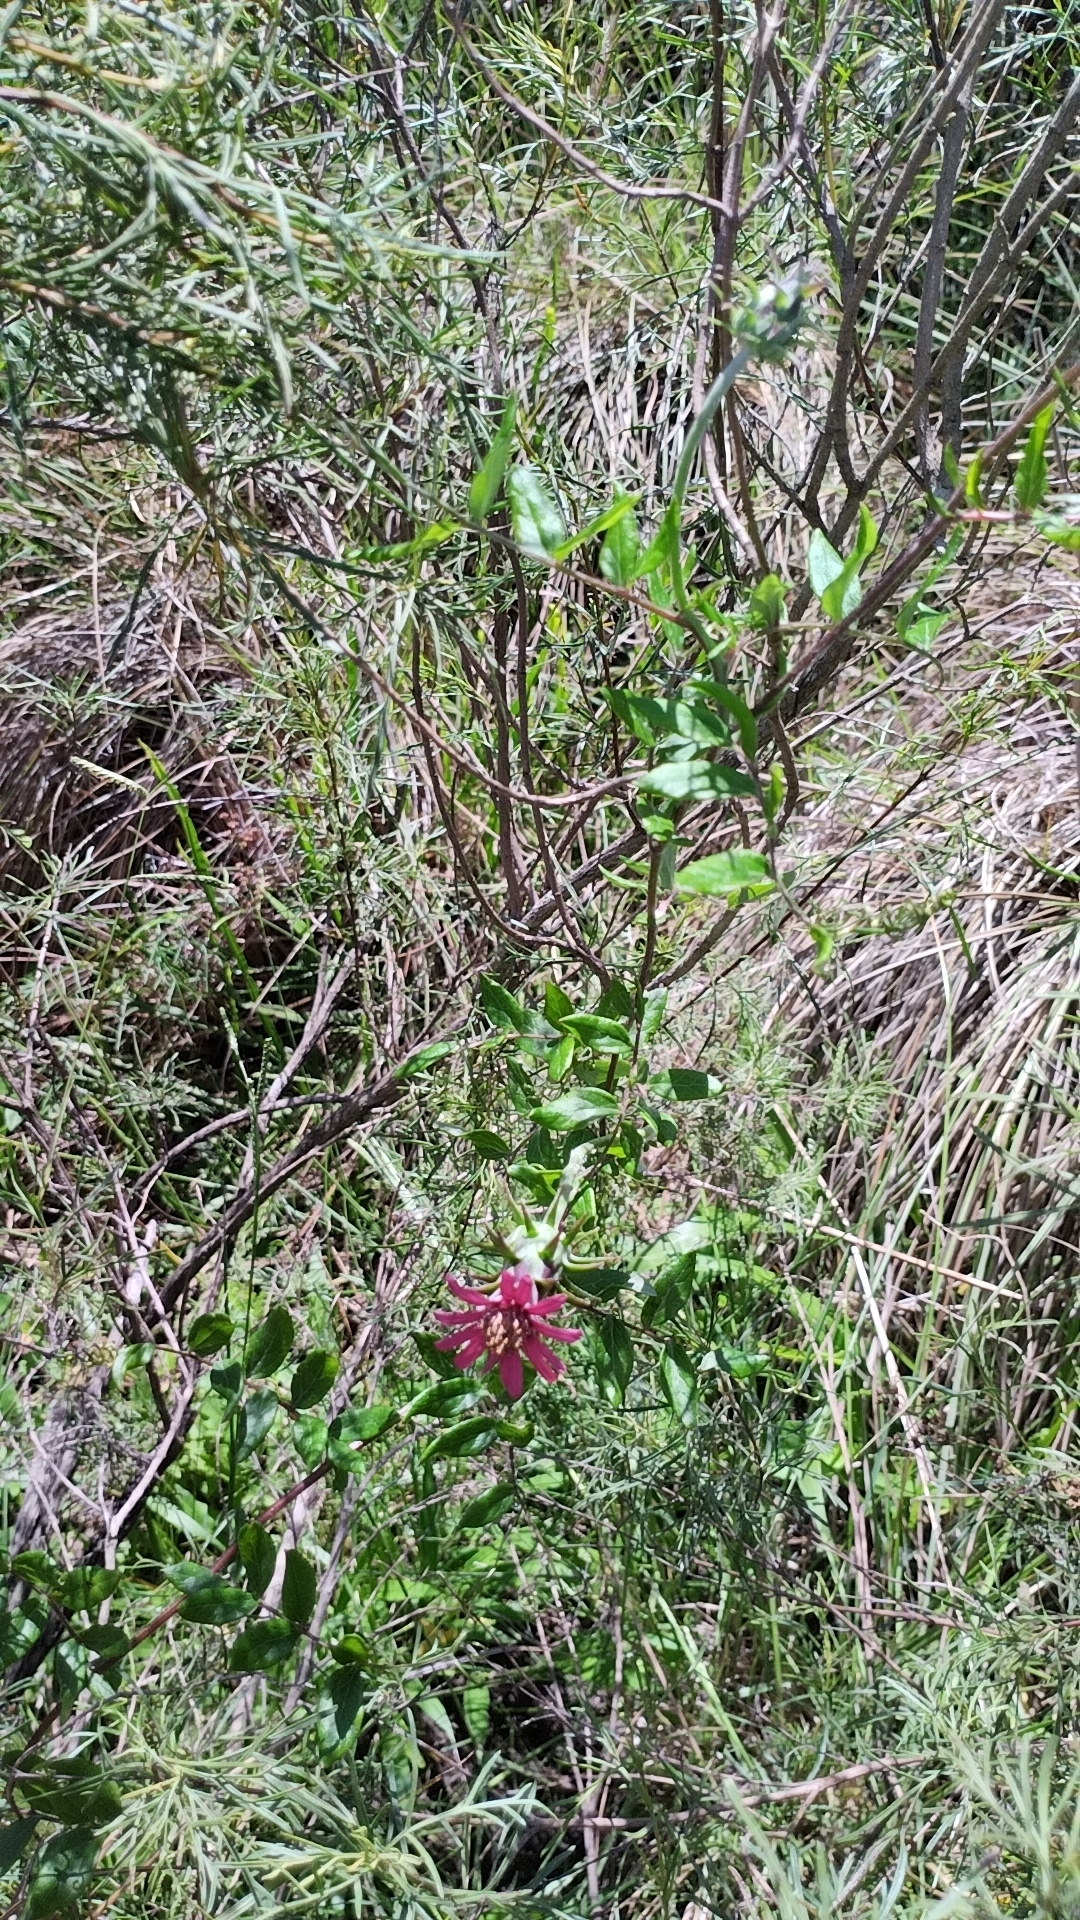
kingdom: Plantae
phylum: Tracheophyta
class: Magnoliopsida
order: Asterales
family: Asteraceae
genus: Mutisia
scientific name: Mutisia coccinea
